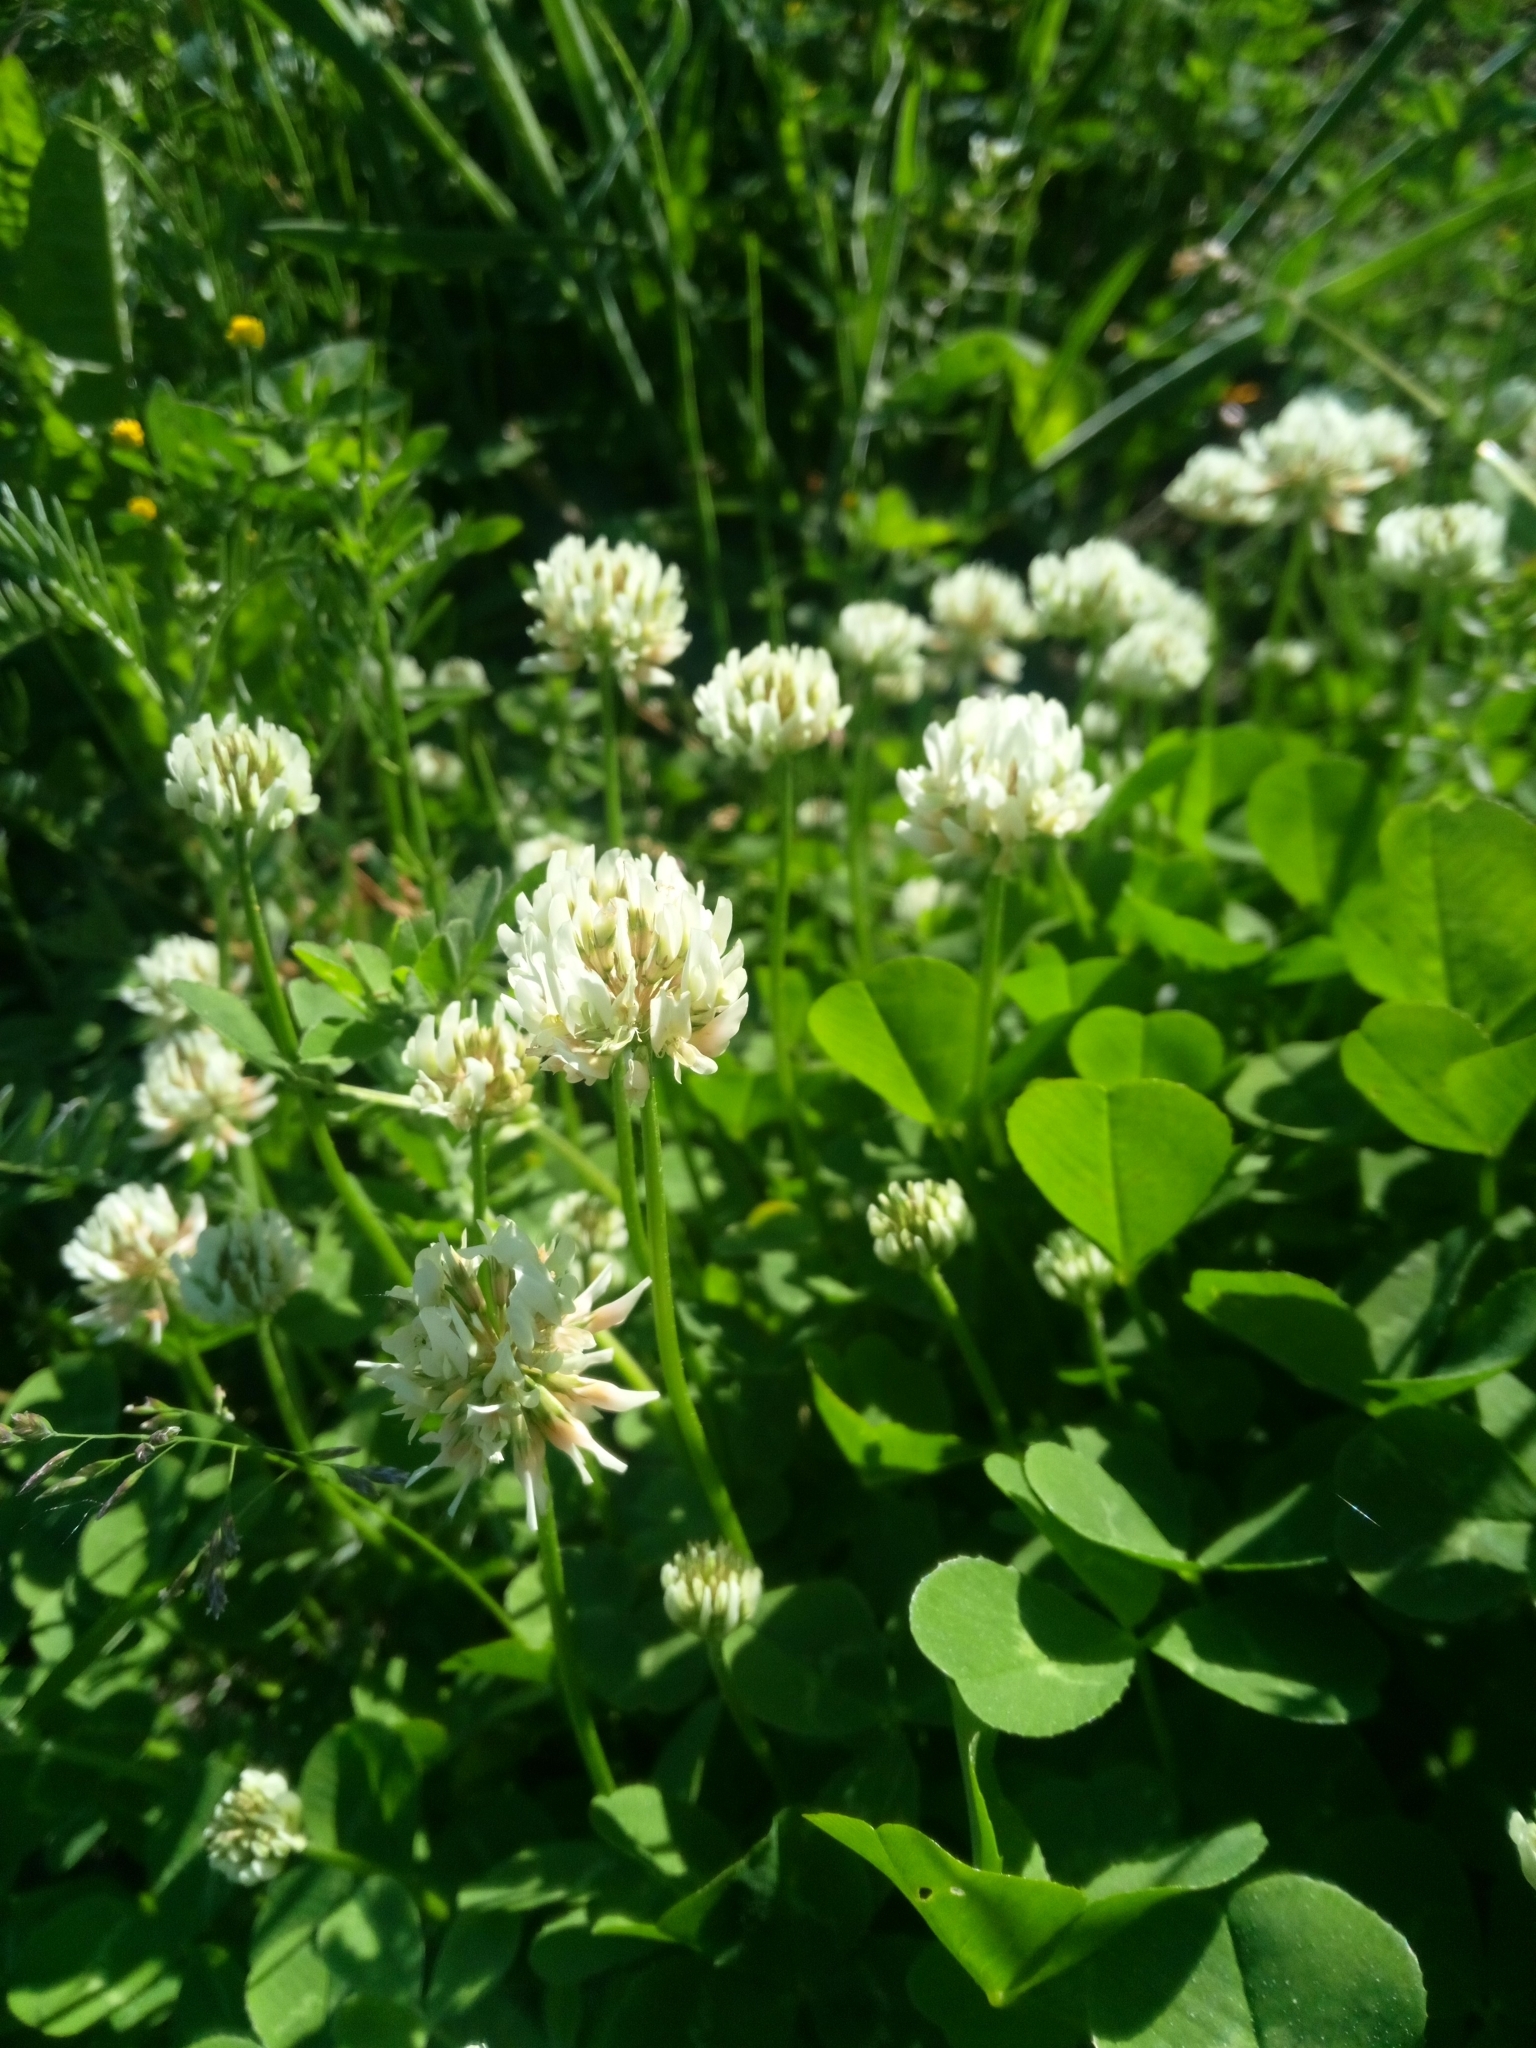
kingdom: Plantae
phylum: Tracheophyta
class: Magnoliopsida
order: Fabales
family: Fabaceae
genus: Trifolium
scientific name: Trifolium repens
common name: White clover
